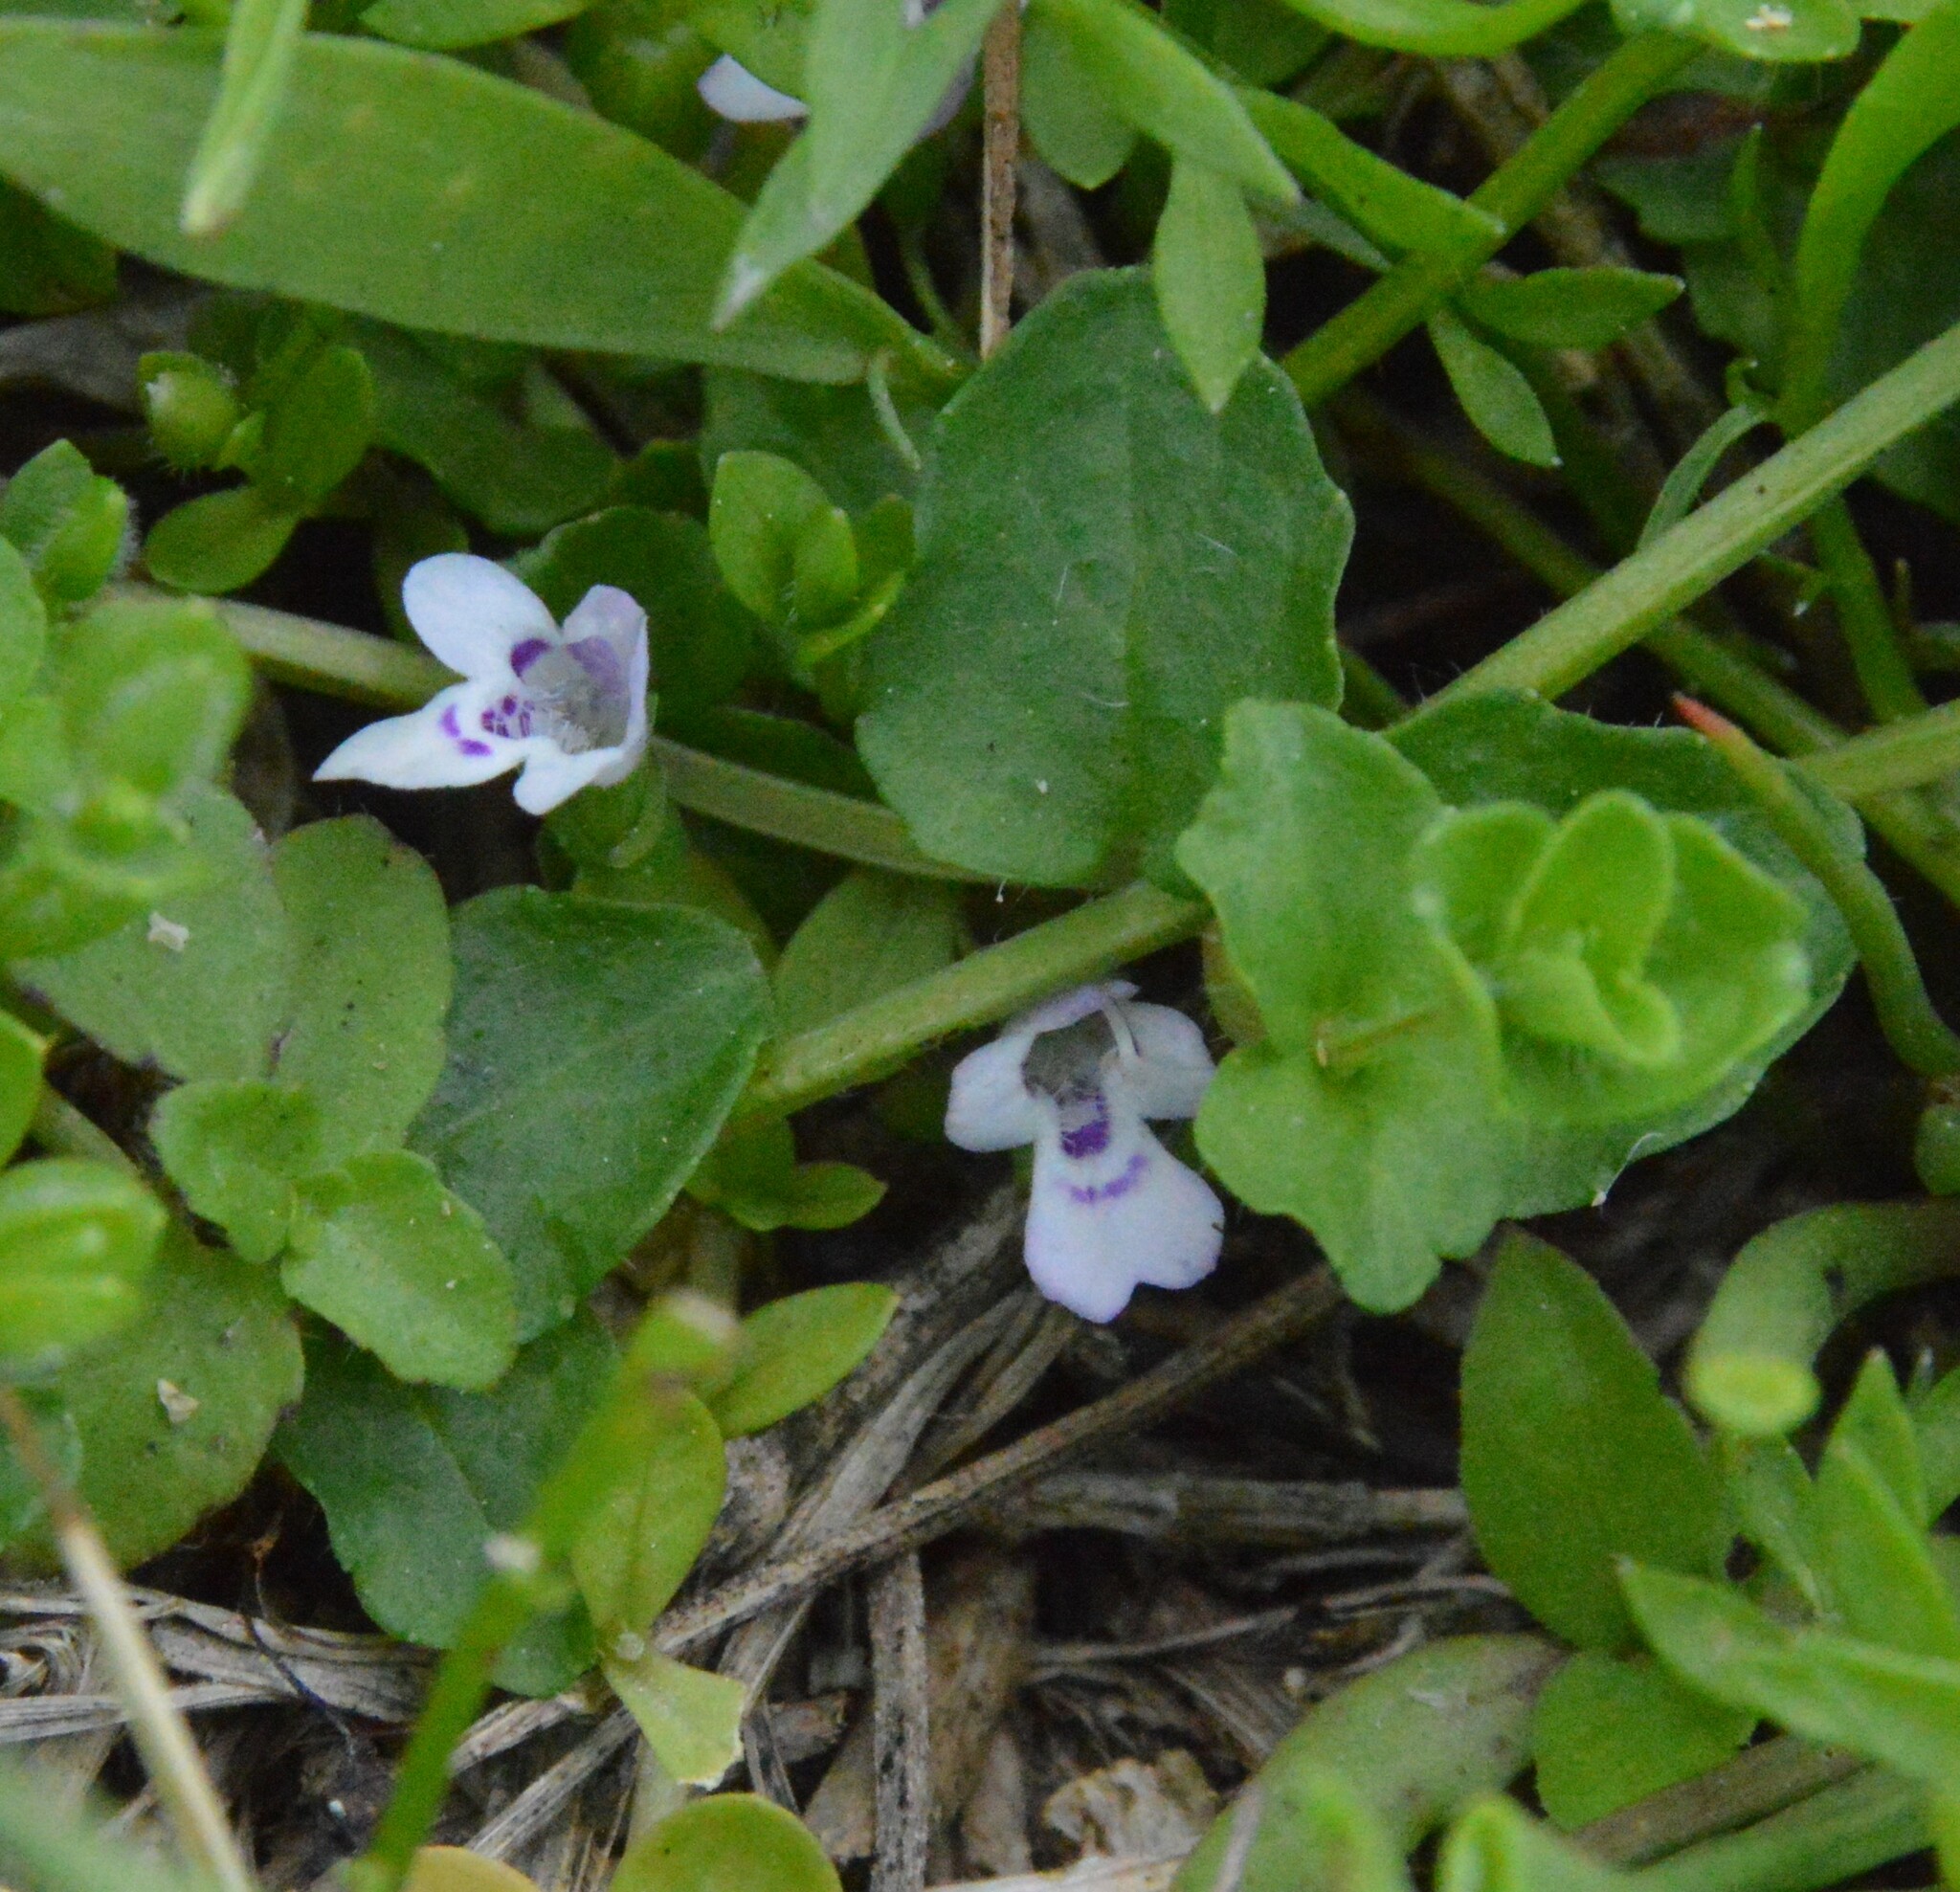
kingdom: Plantae
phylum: Tracheophyta
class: Magnoliopsida
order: Lamiales
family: Lamiaceae
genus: Clinopodium
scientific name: Clinopodium brownei
